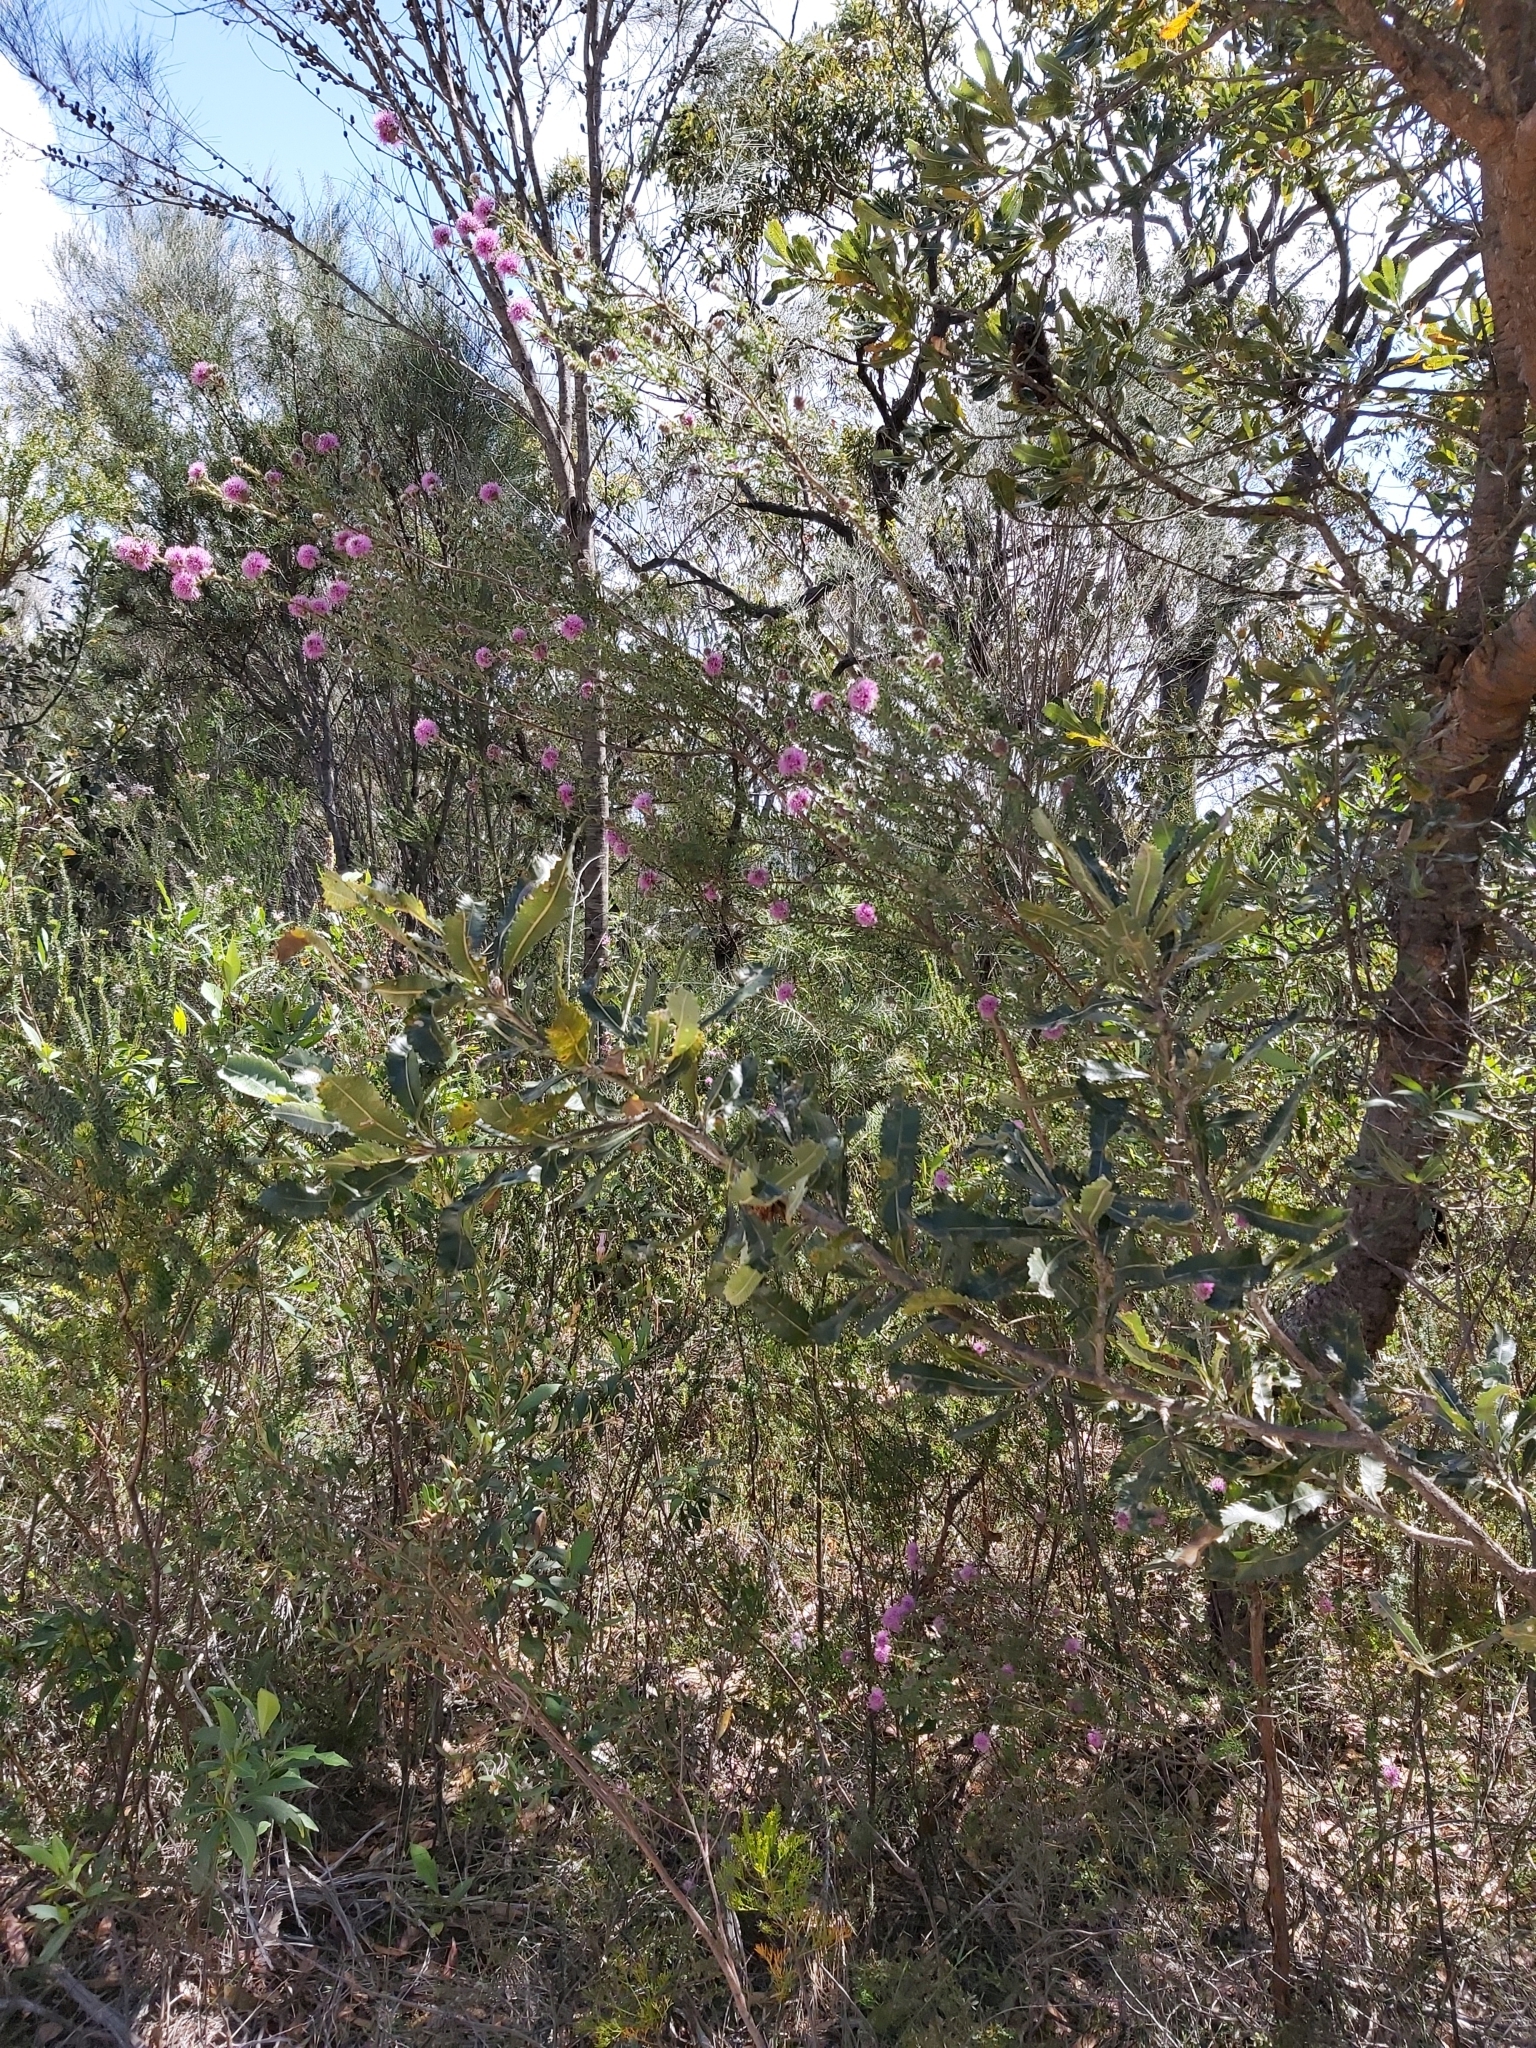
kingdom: Plantae
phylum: Tracheophyta
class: Magnoliopsida
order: Myrtales
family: Myrtaceae
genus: Kunzea
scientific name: Kunzea capitata
